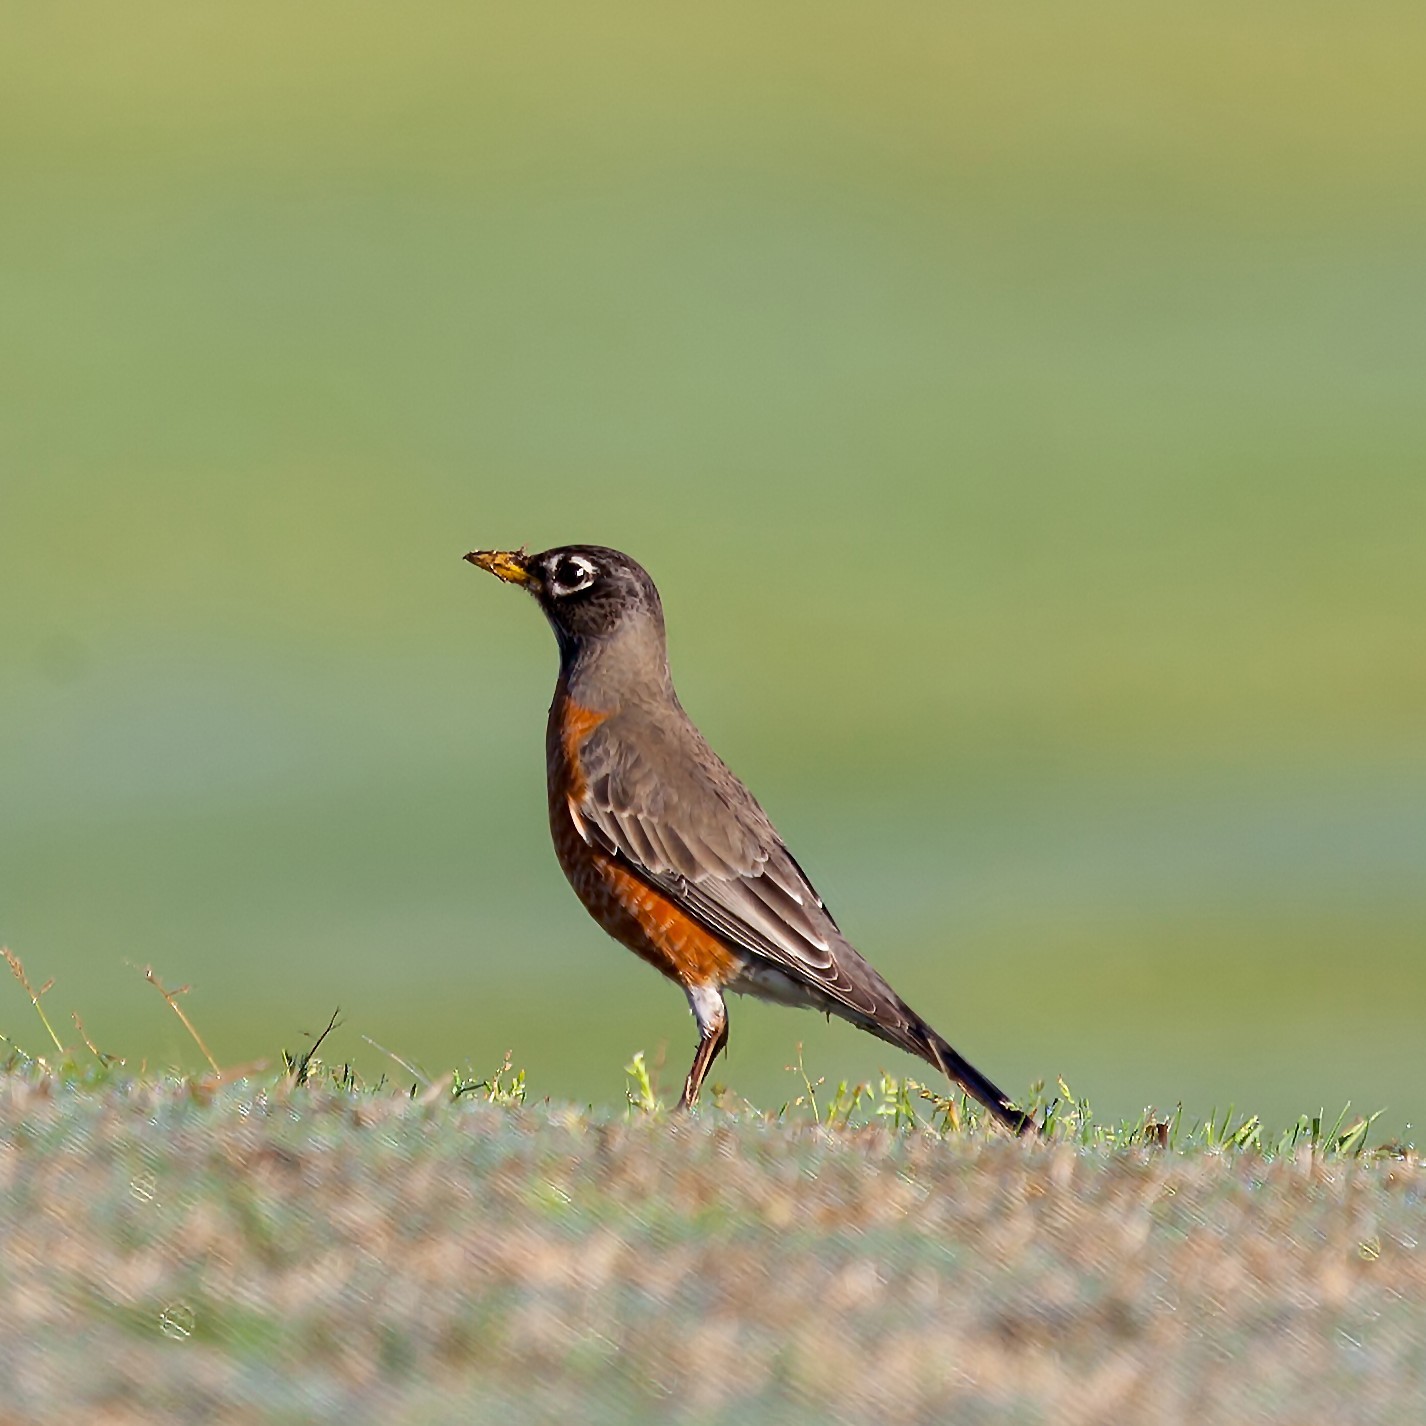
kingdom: Animalia
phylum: Chordata
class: Aves
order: Passeriformes
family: Turdidae
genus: Turdus
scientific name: Turdus migratorius
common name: American robin
